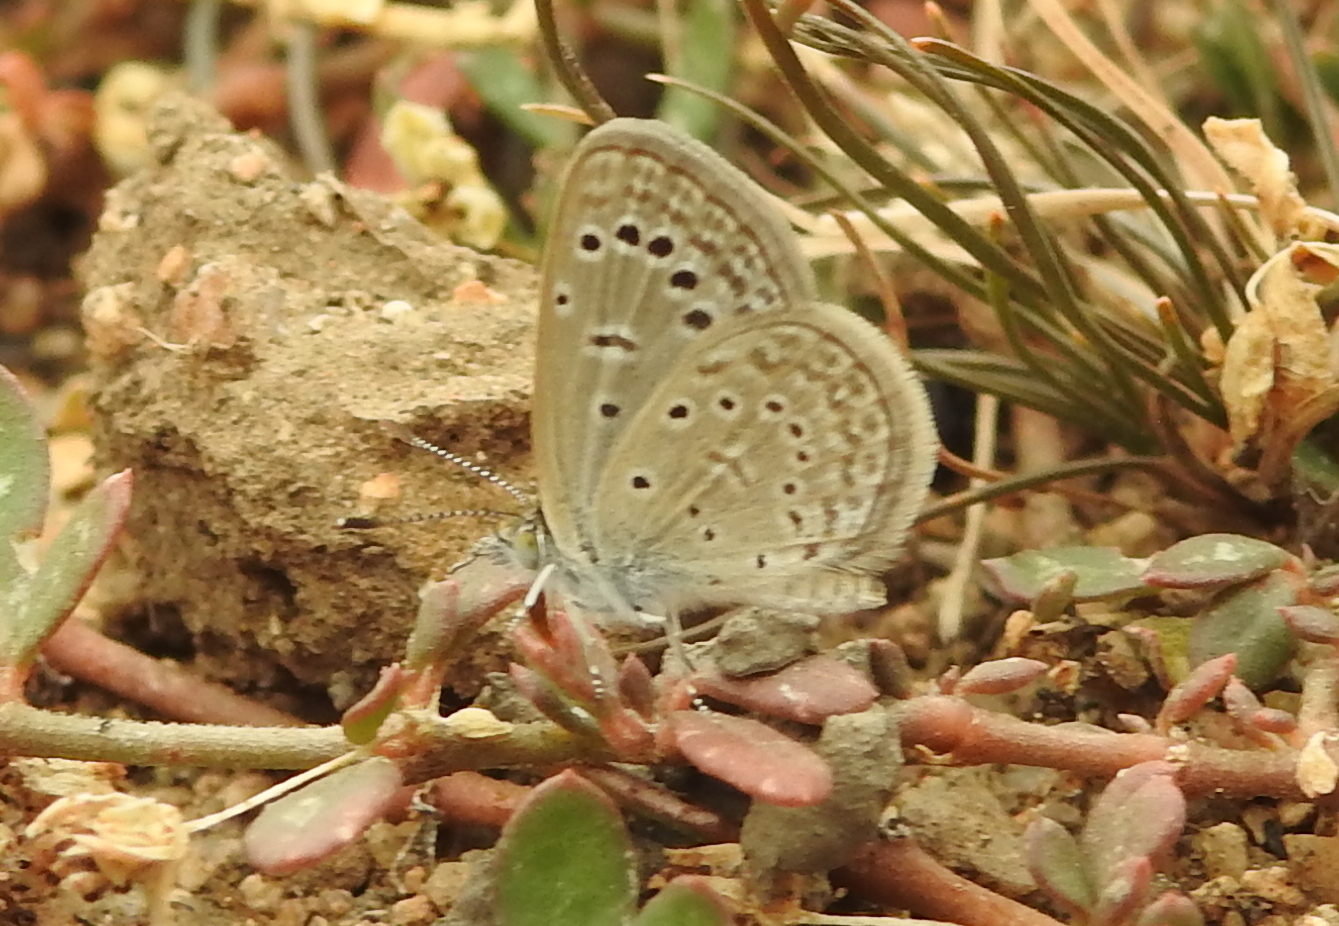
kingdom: Animalia
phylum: Arthropoda
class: Insecta
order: Lepidoptera
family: Lycaenidae
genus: Zizeeria
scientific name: Zizeeria karsandra
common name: Dark grass blue
